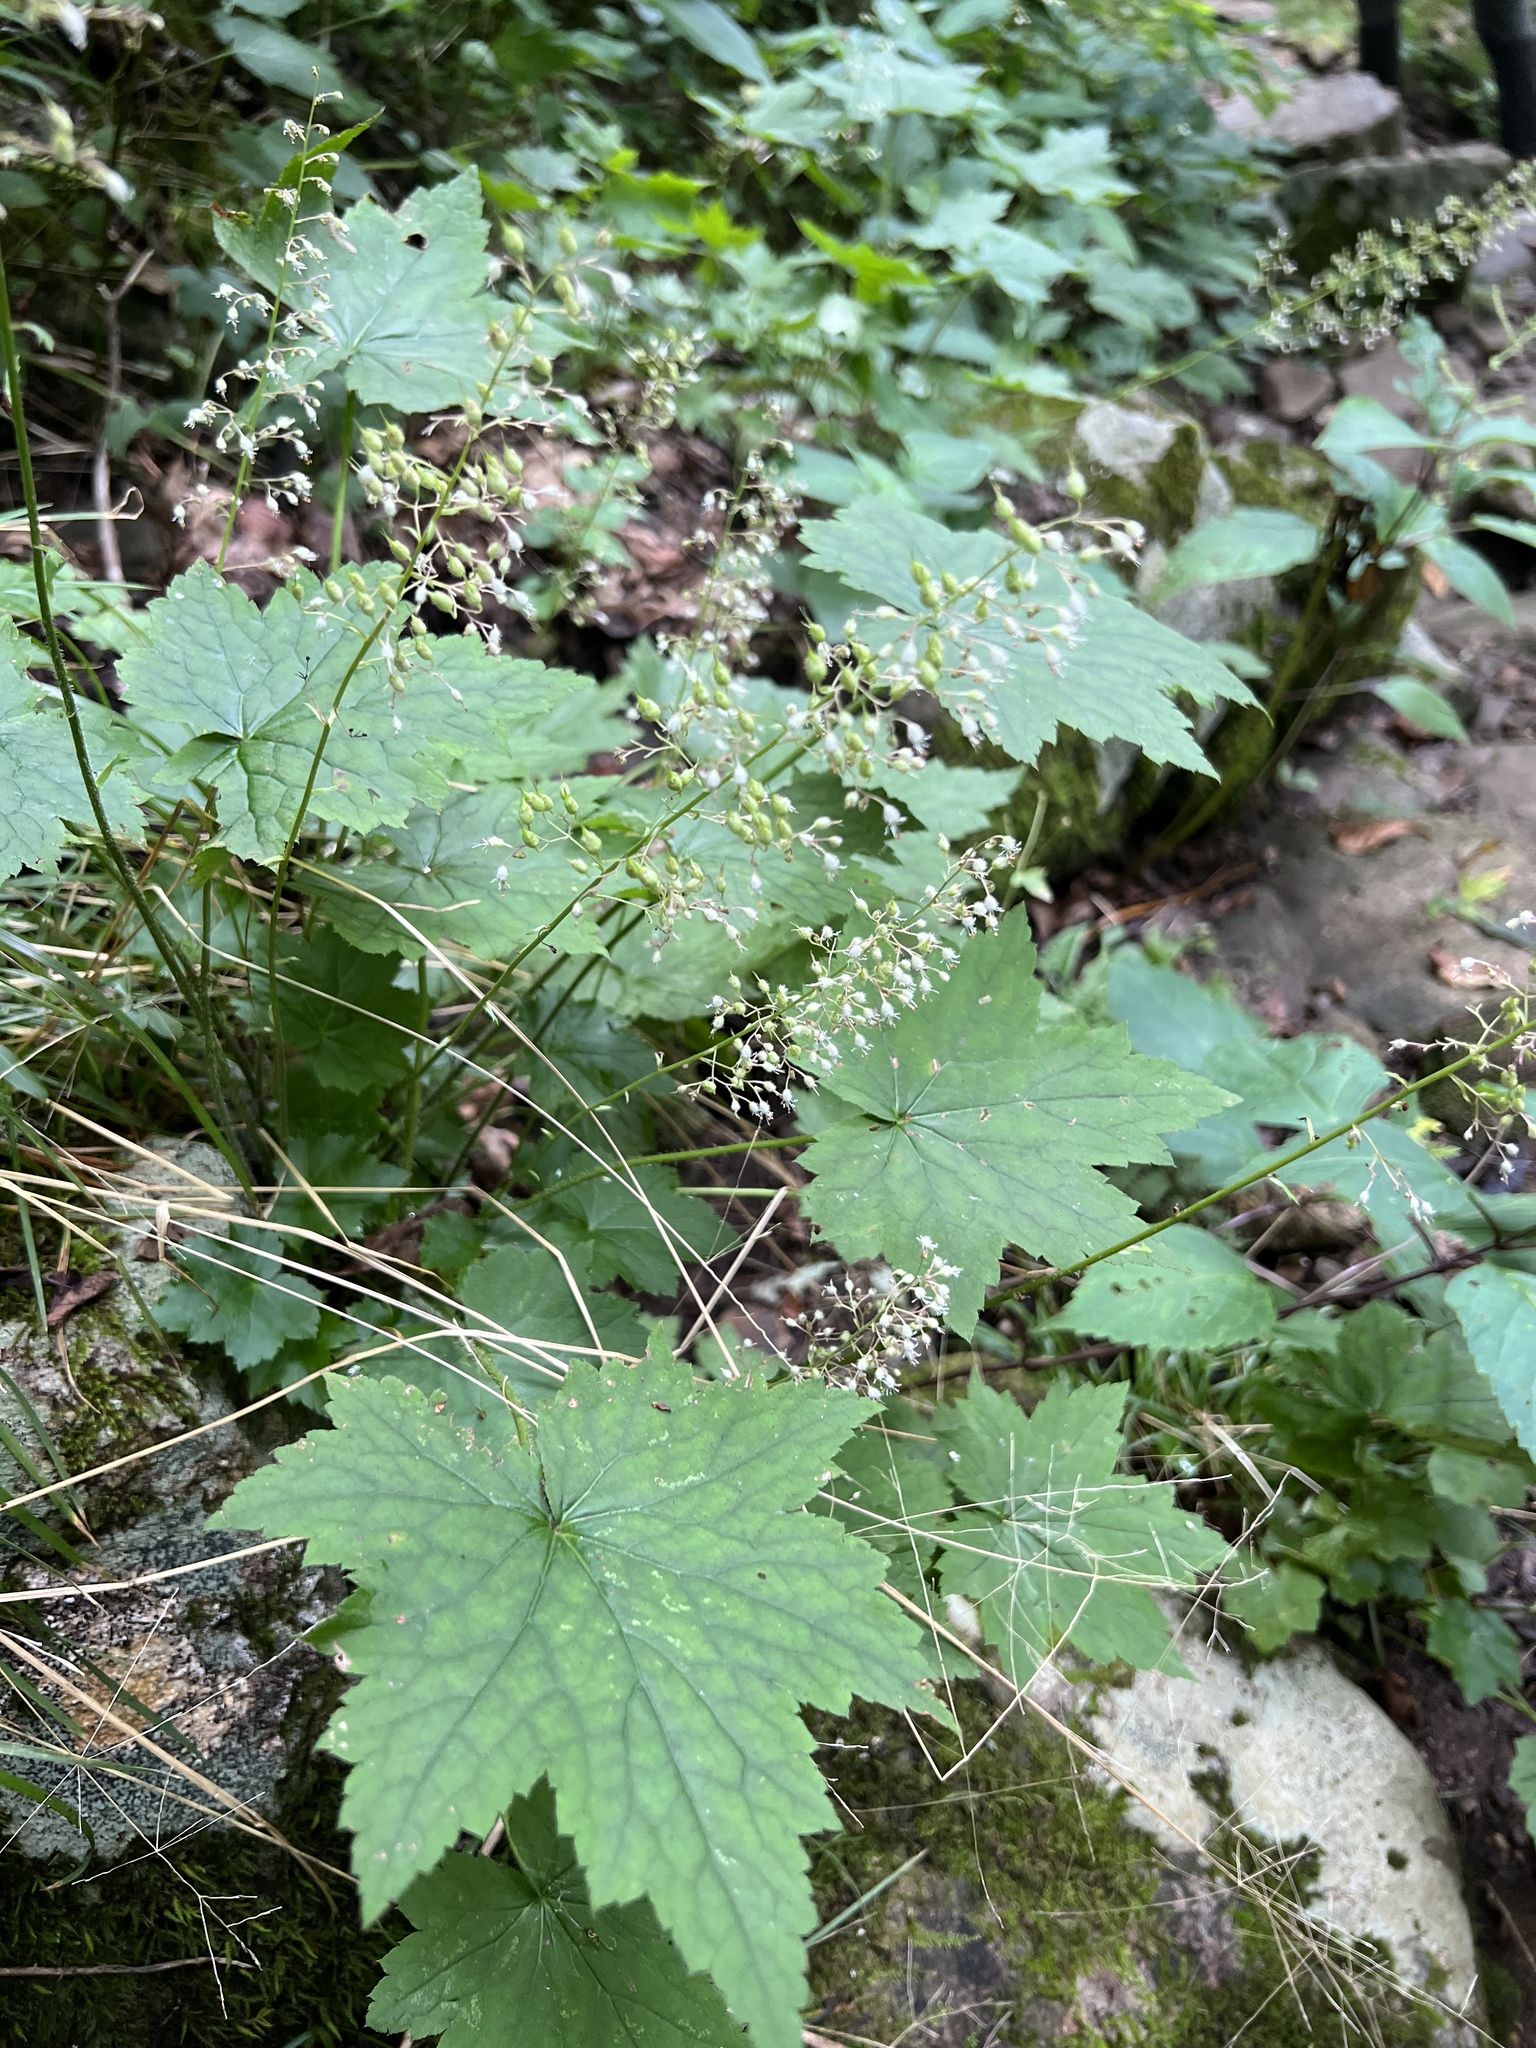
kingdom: Plantae
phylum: Tracheophyta
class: Magnoliopsida
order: Saxifragales
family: Saxifragaceae
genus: Heuchera
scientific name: Heuchera villosa
